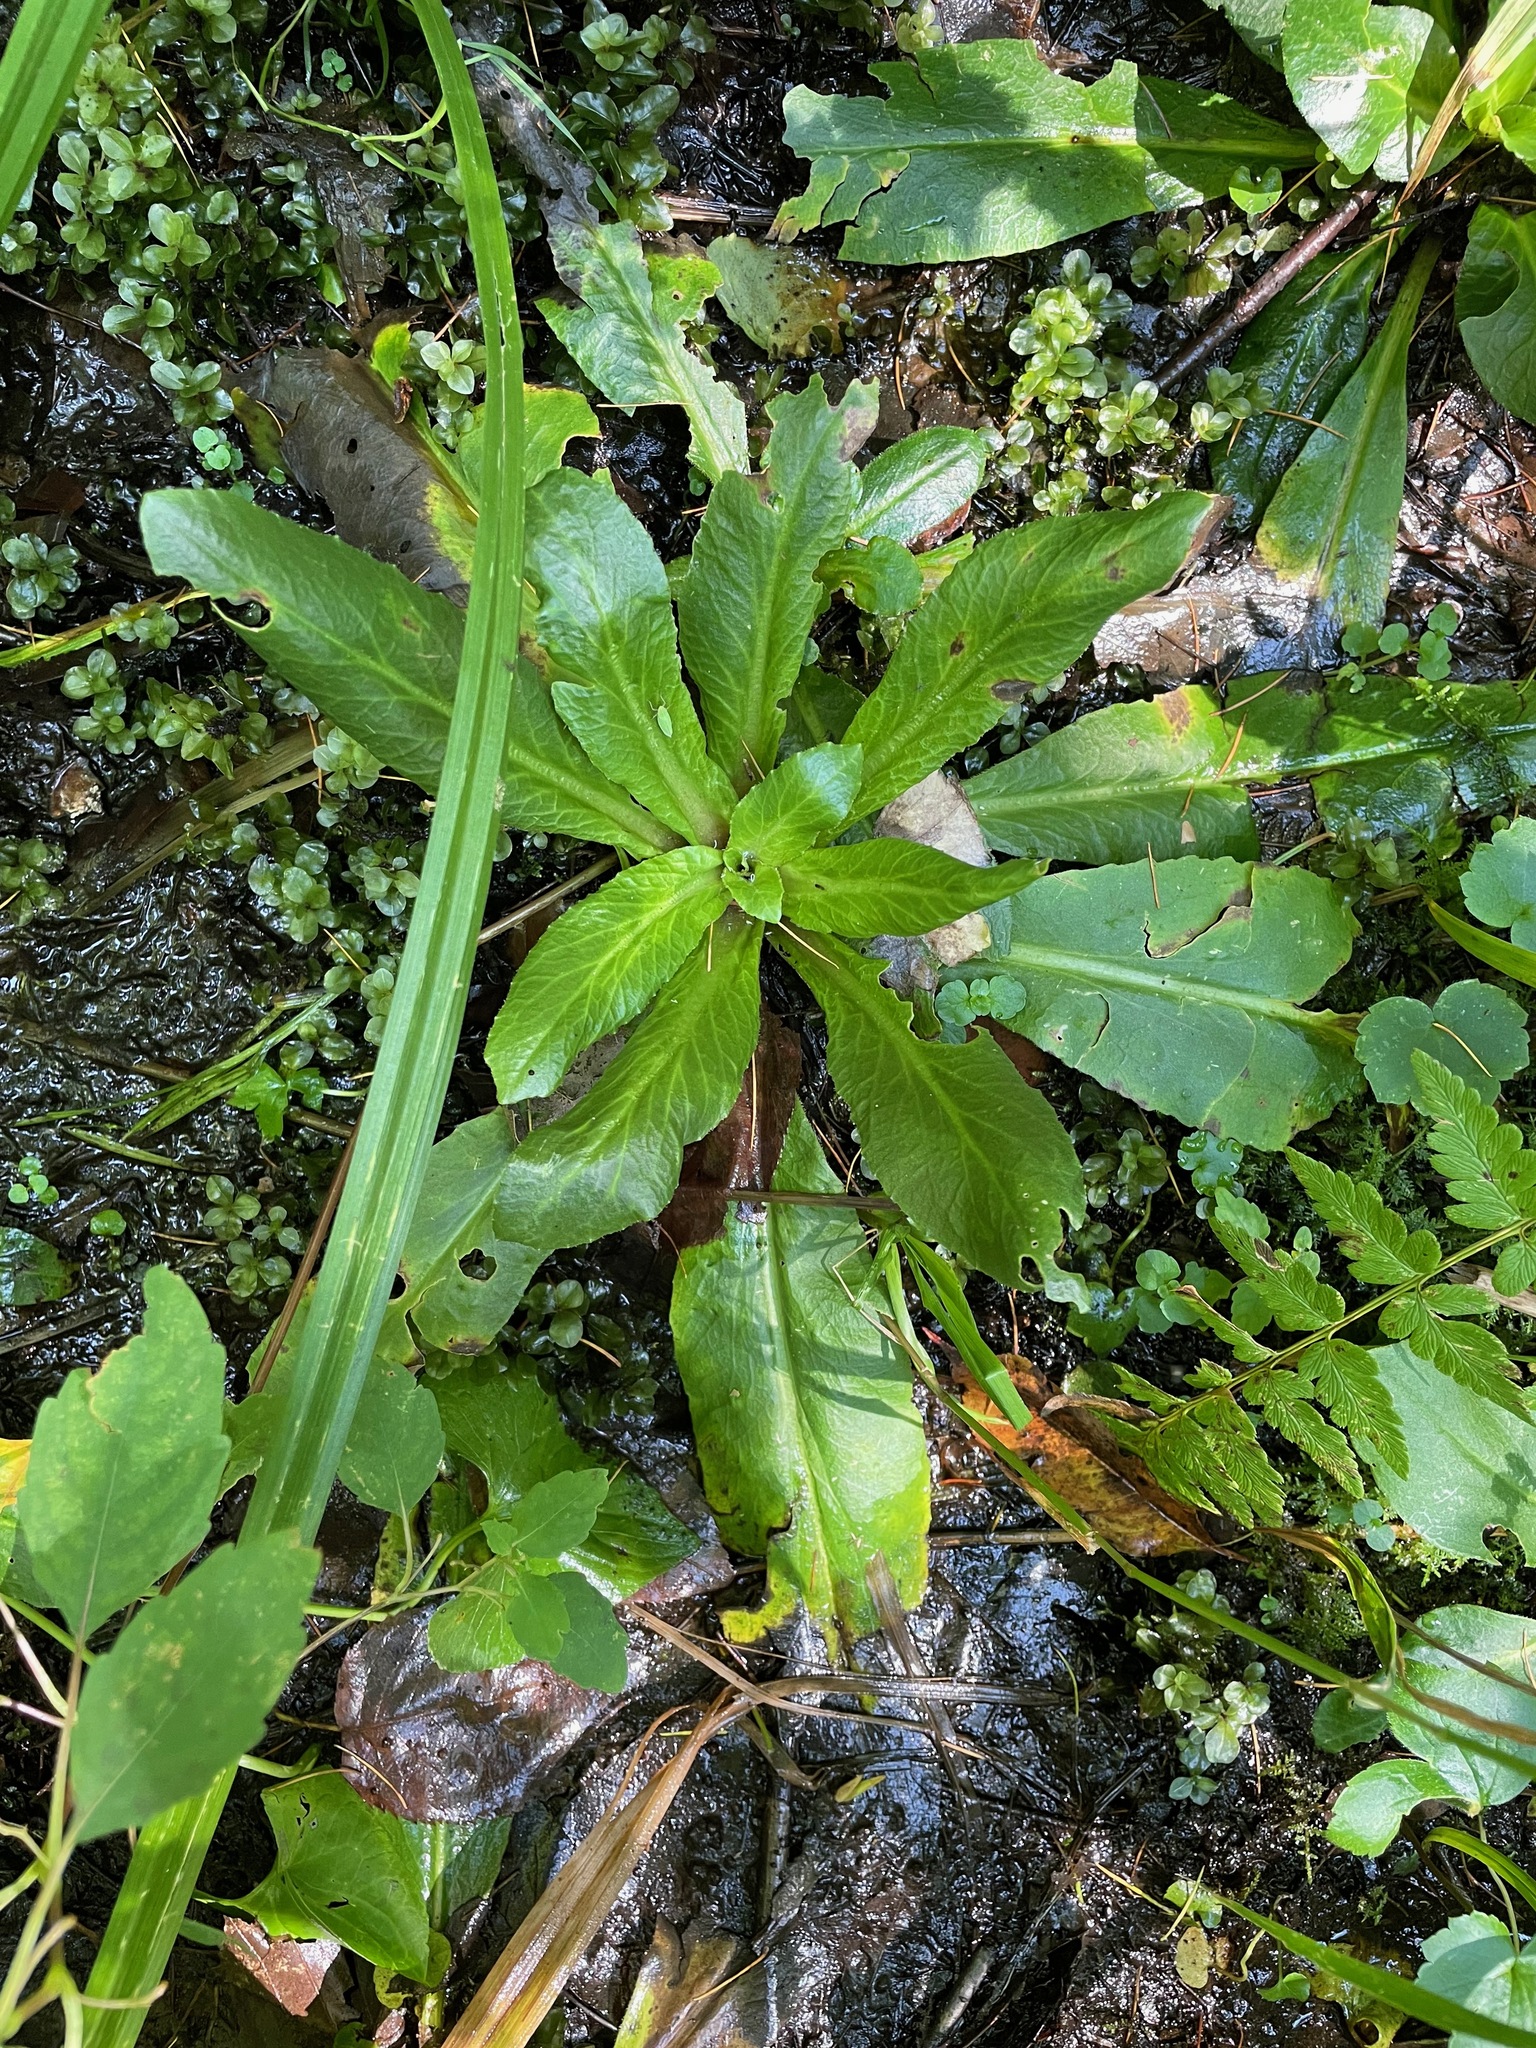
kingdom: Plantae
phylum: Tracheophyta
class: Magnoliopsida
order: Saxifragales
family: Saxifragaceae
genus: Micranthes
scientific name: Micranthes pensylvanica
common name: Marsh saxifrage
